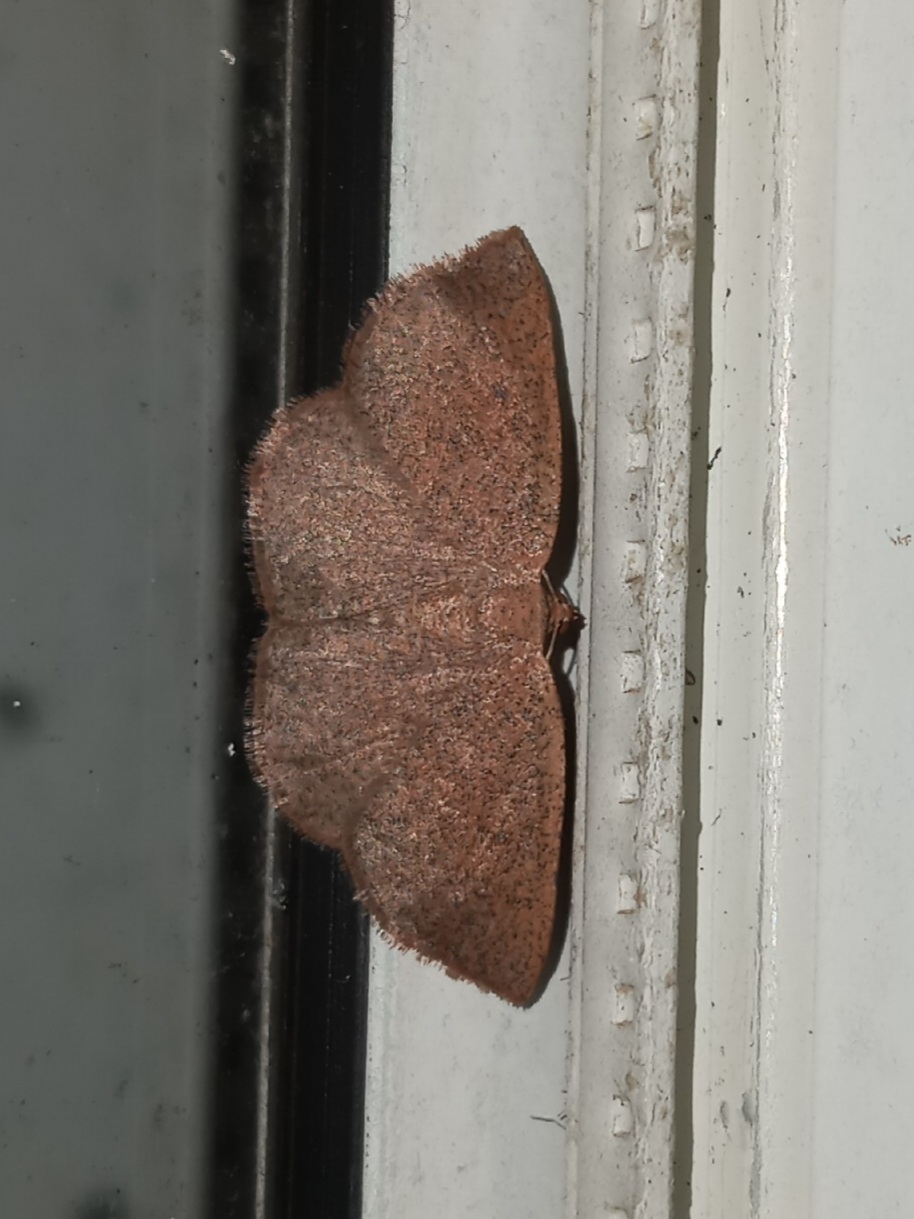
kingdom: Animalia
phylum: Arthropoda
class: Insecta
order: Lepidoptera
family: Geometridae
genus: Ilexia
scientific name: Ilexia intractata
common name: Black-dotted ruddy moth
